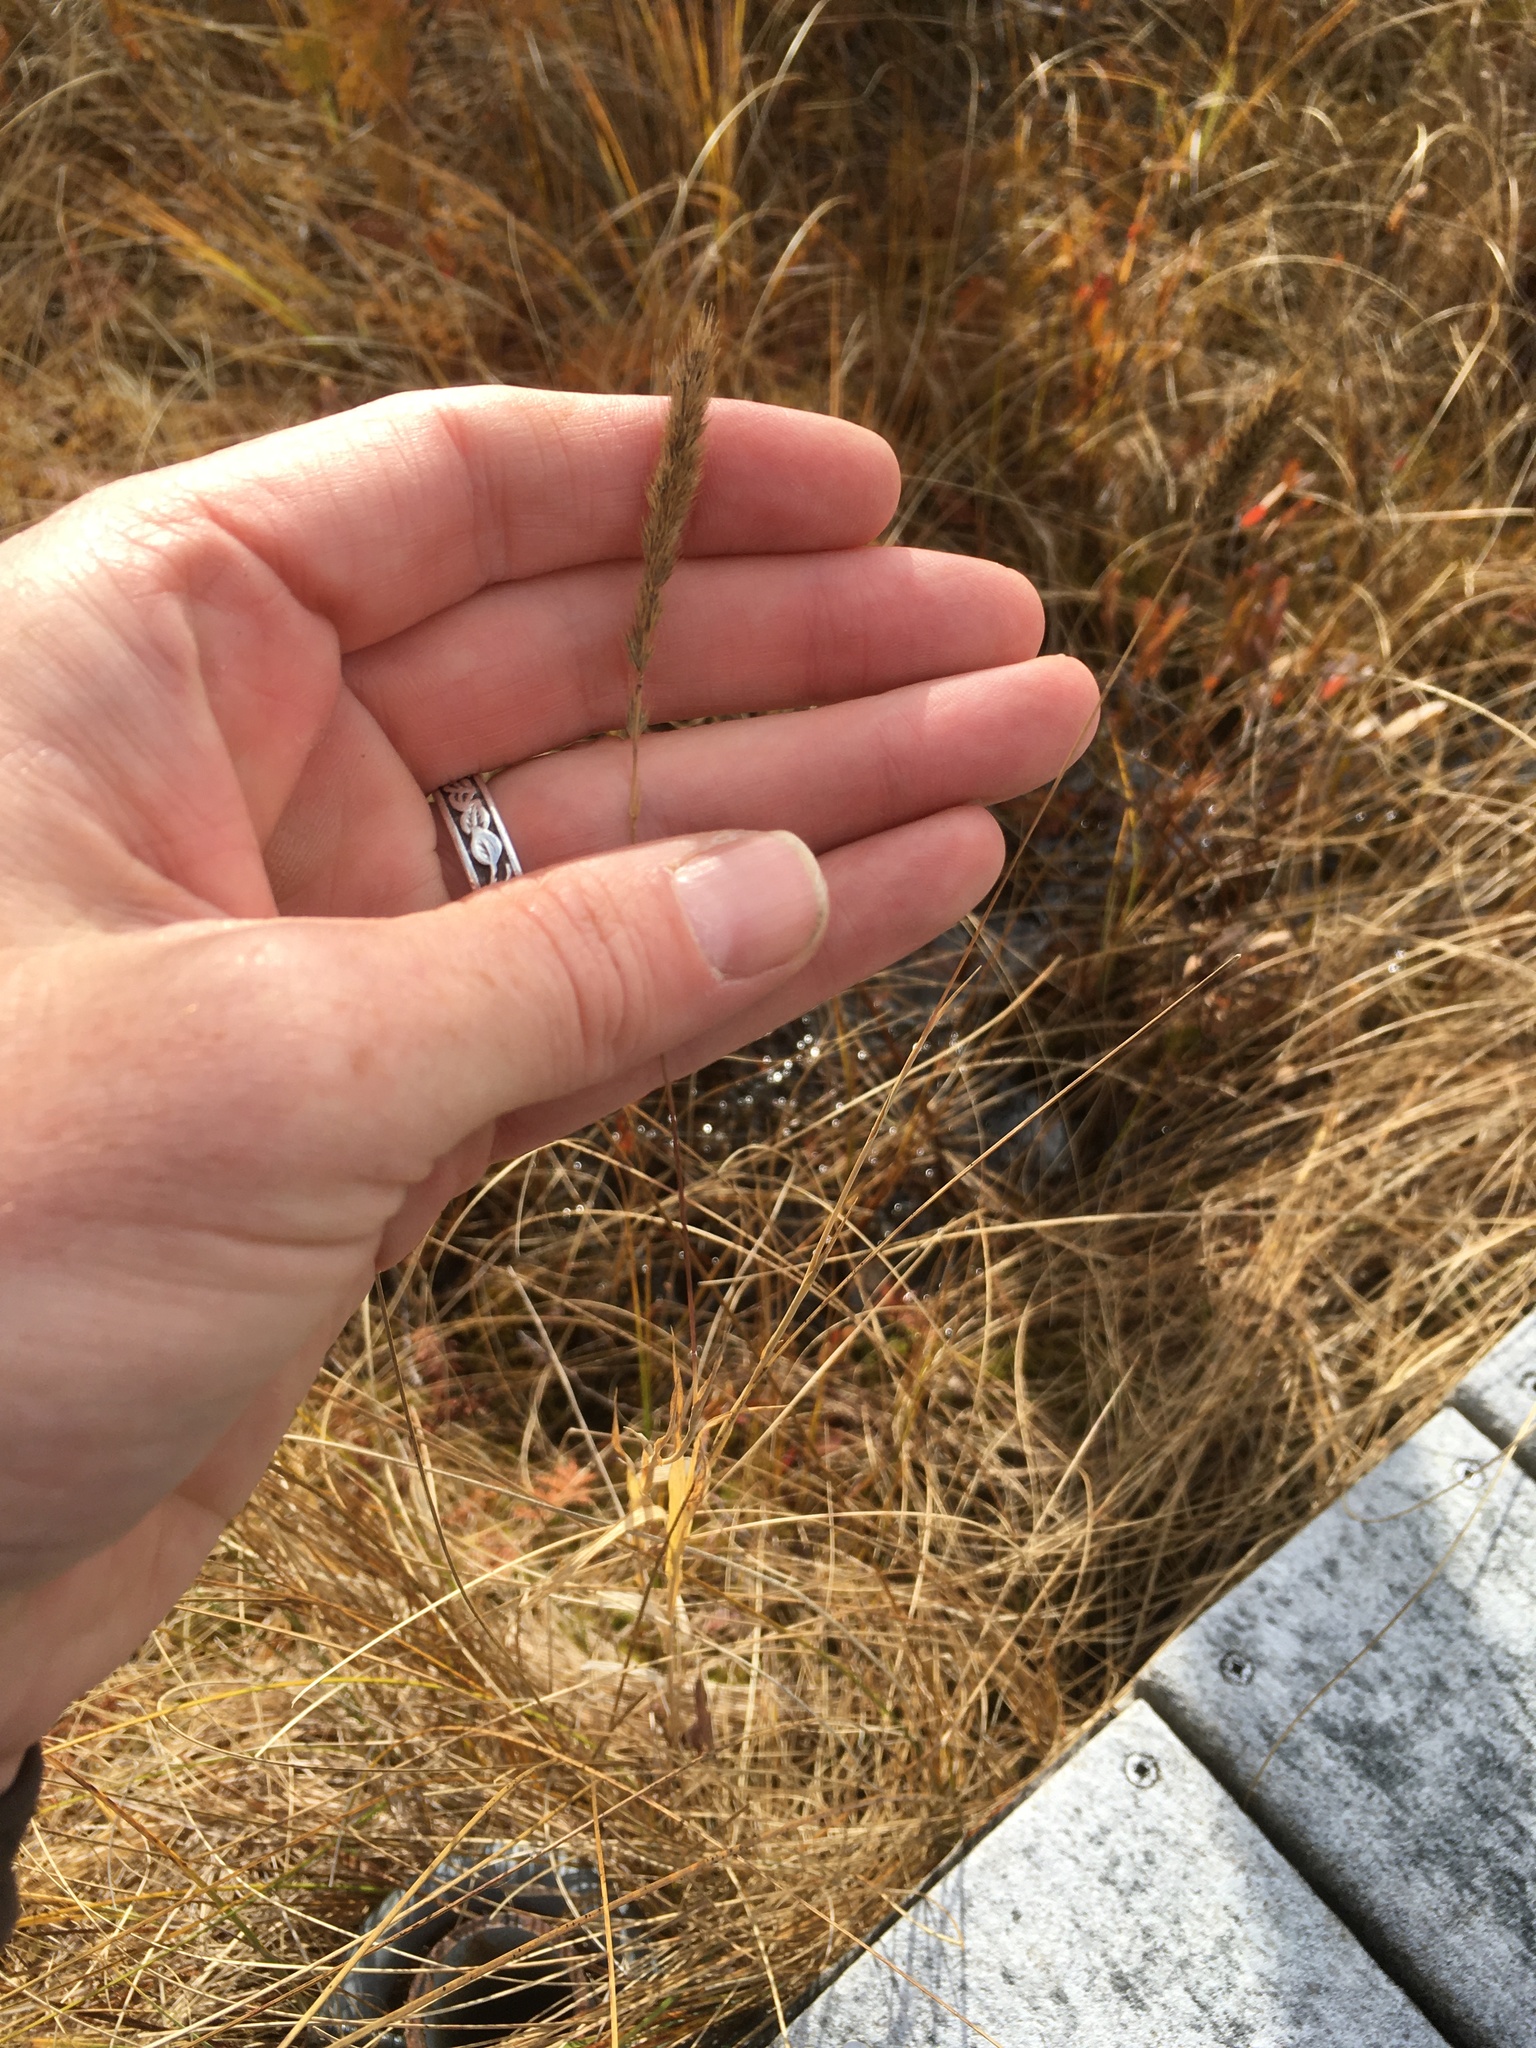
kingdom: Plantae
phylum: Tracheophyta
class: Liliopsida
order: Poales
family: Poaceae
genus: Muhlenbergia
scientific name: Muhlenbergia glomerata
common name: Bog muhly
